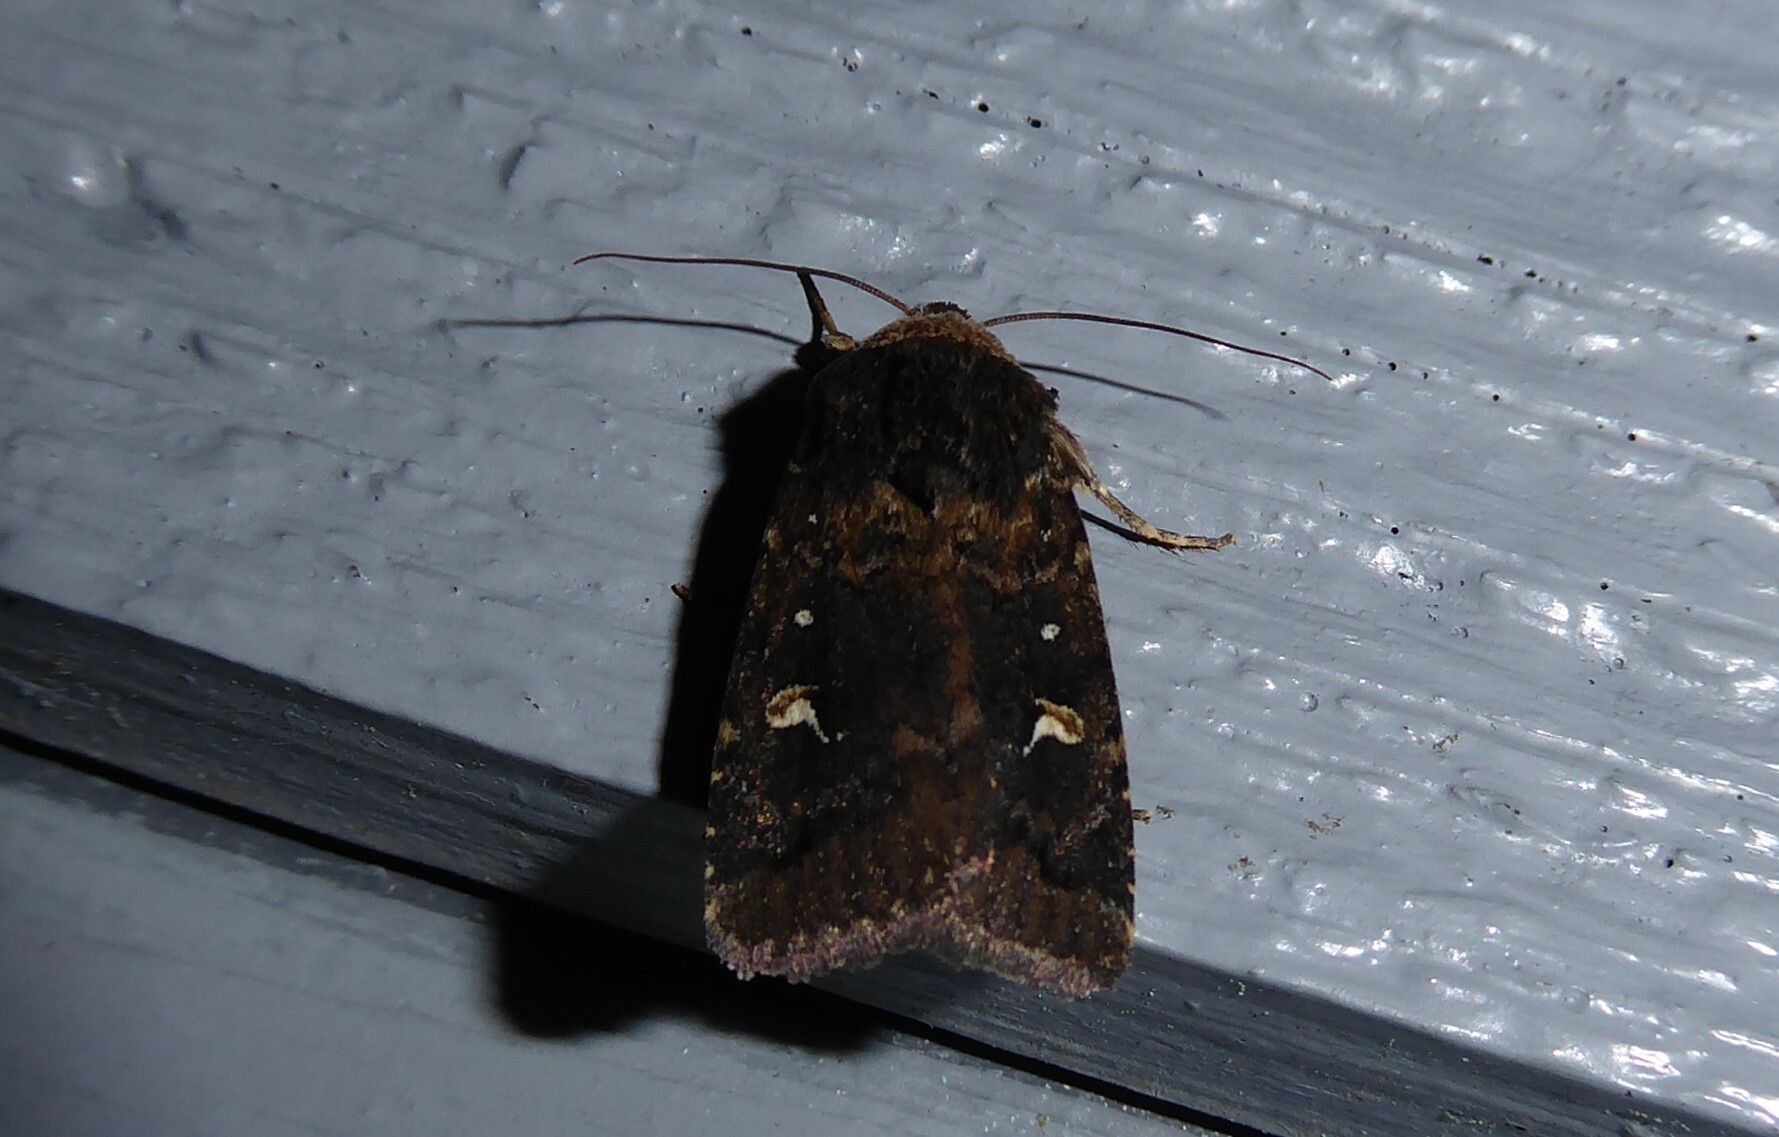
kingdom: Animalia
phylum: Arthropoda
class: Insecta
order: Lepidoptera
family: Noctuidae
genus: Proteuxoa
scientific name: Proteuxoa tetronycha
